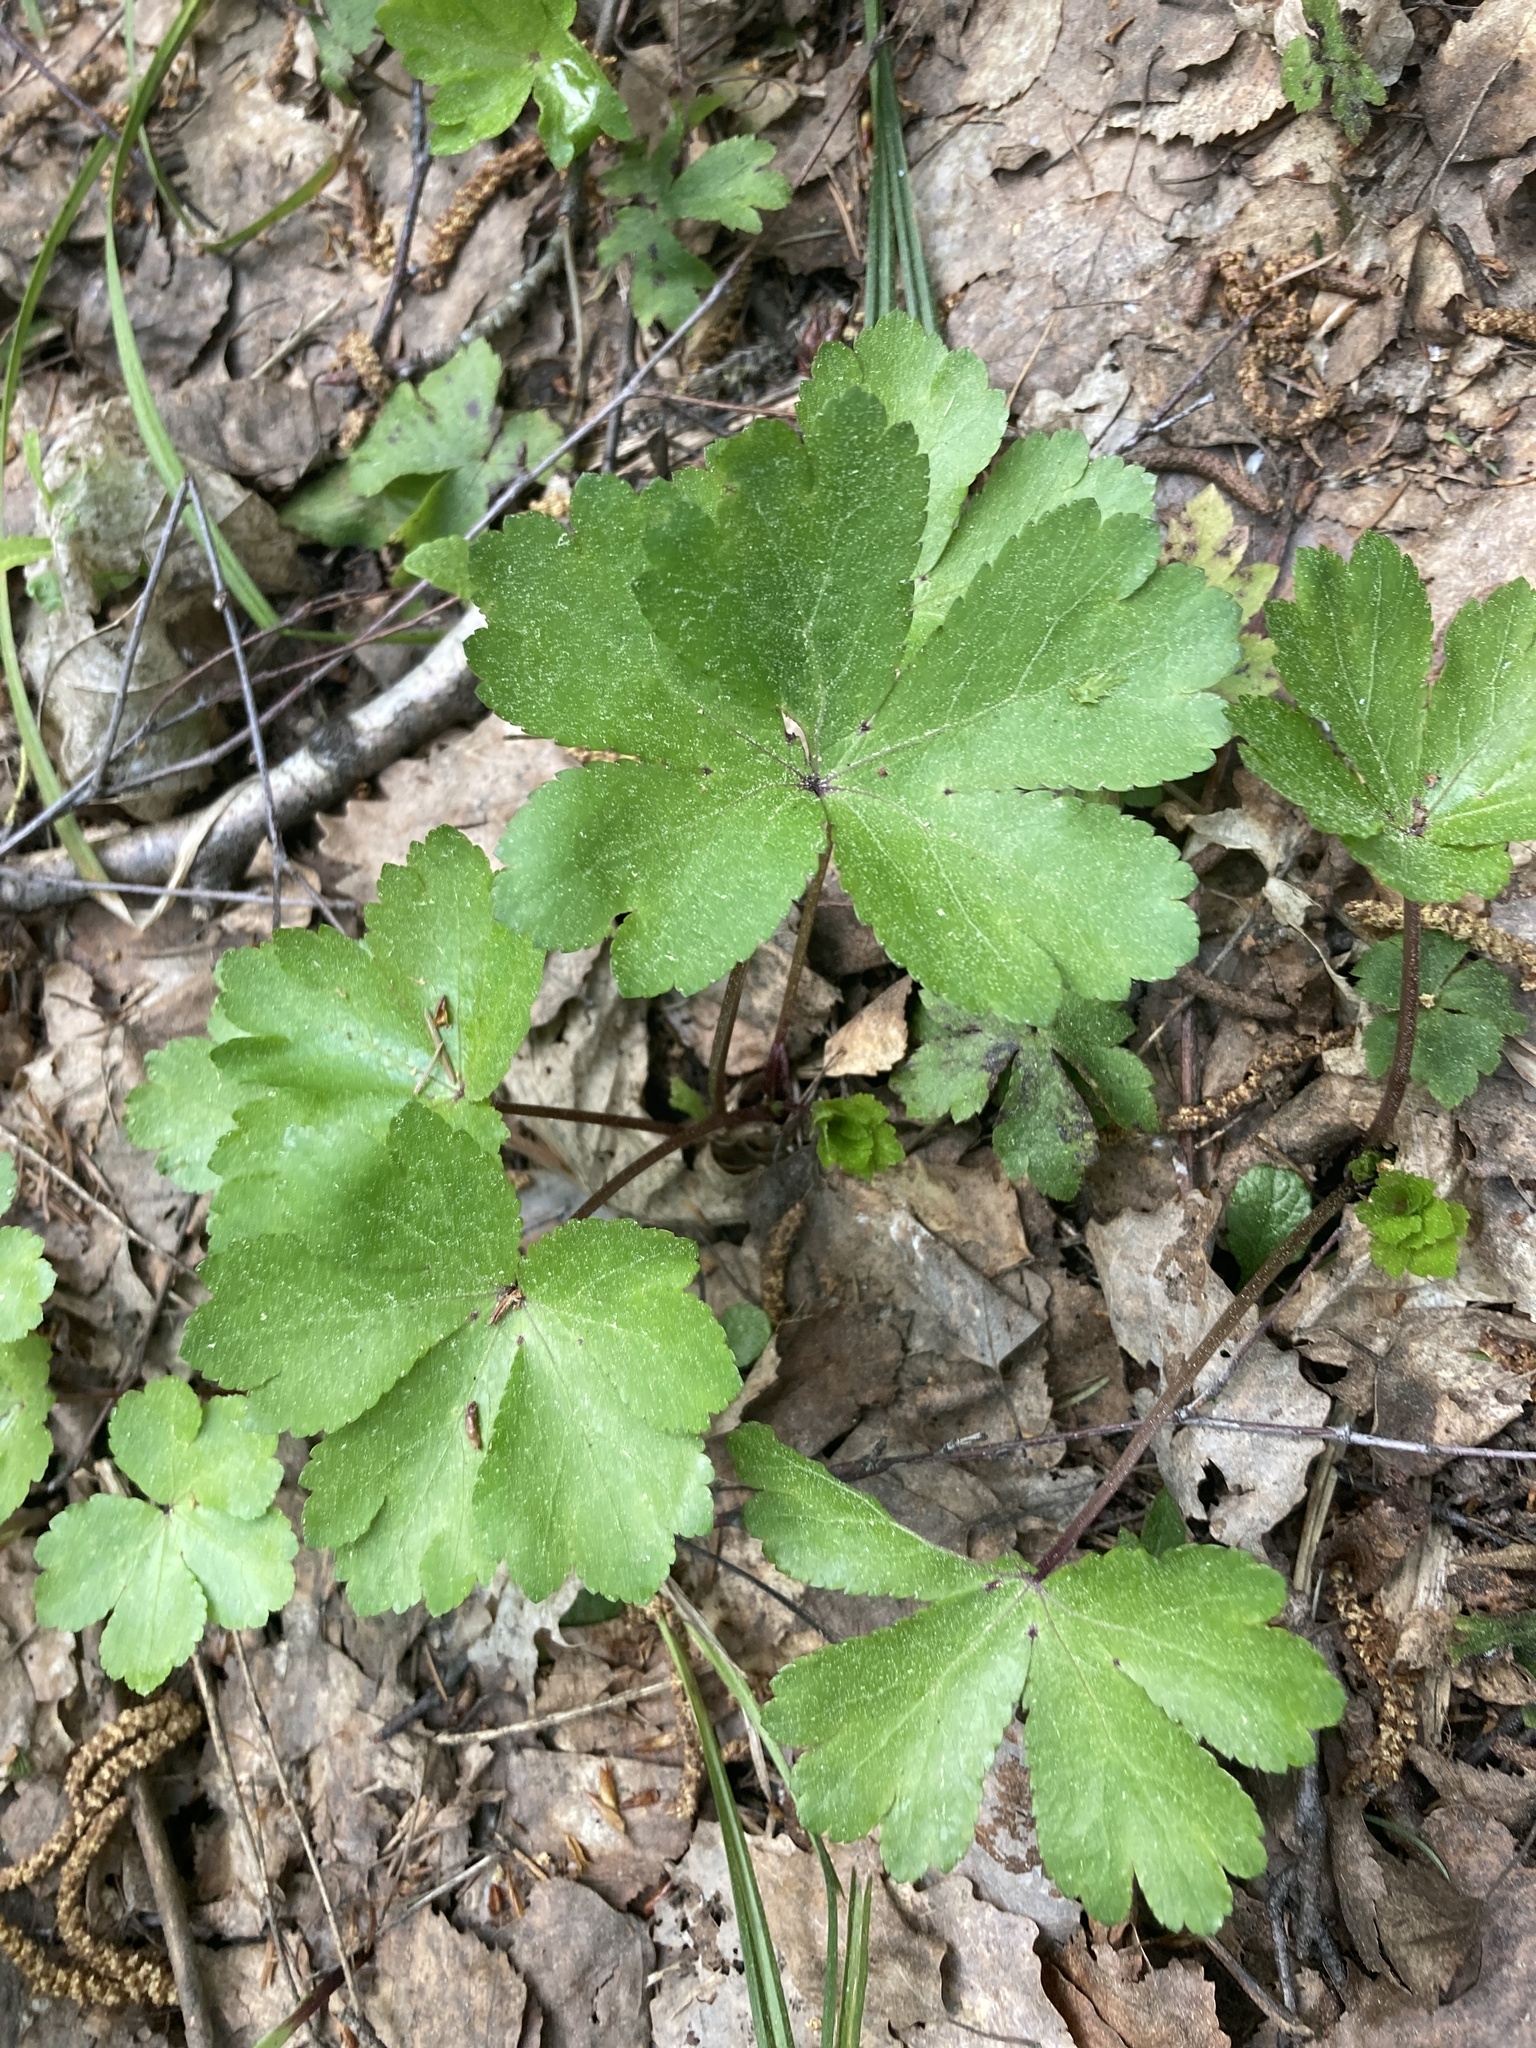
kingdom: Plantae
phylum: Tracheophyta
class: Magnoliopsida
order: Apiales
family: Apiaceae
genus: Sanicula
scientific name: Sanicula europaea
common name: Sanicle
